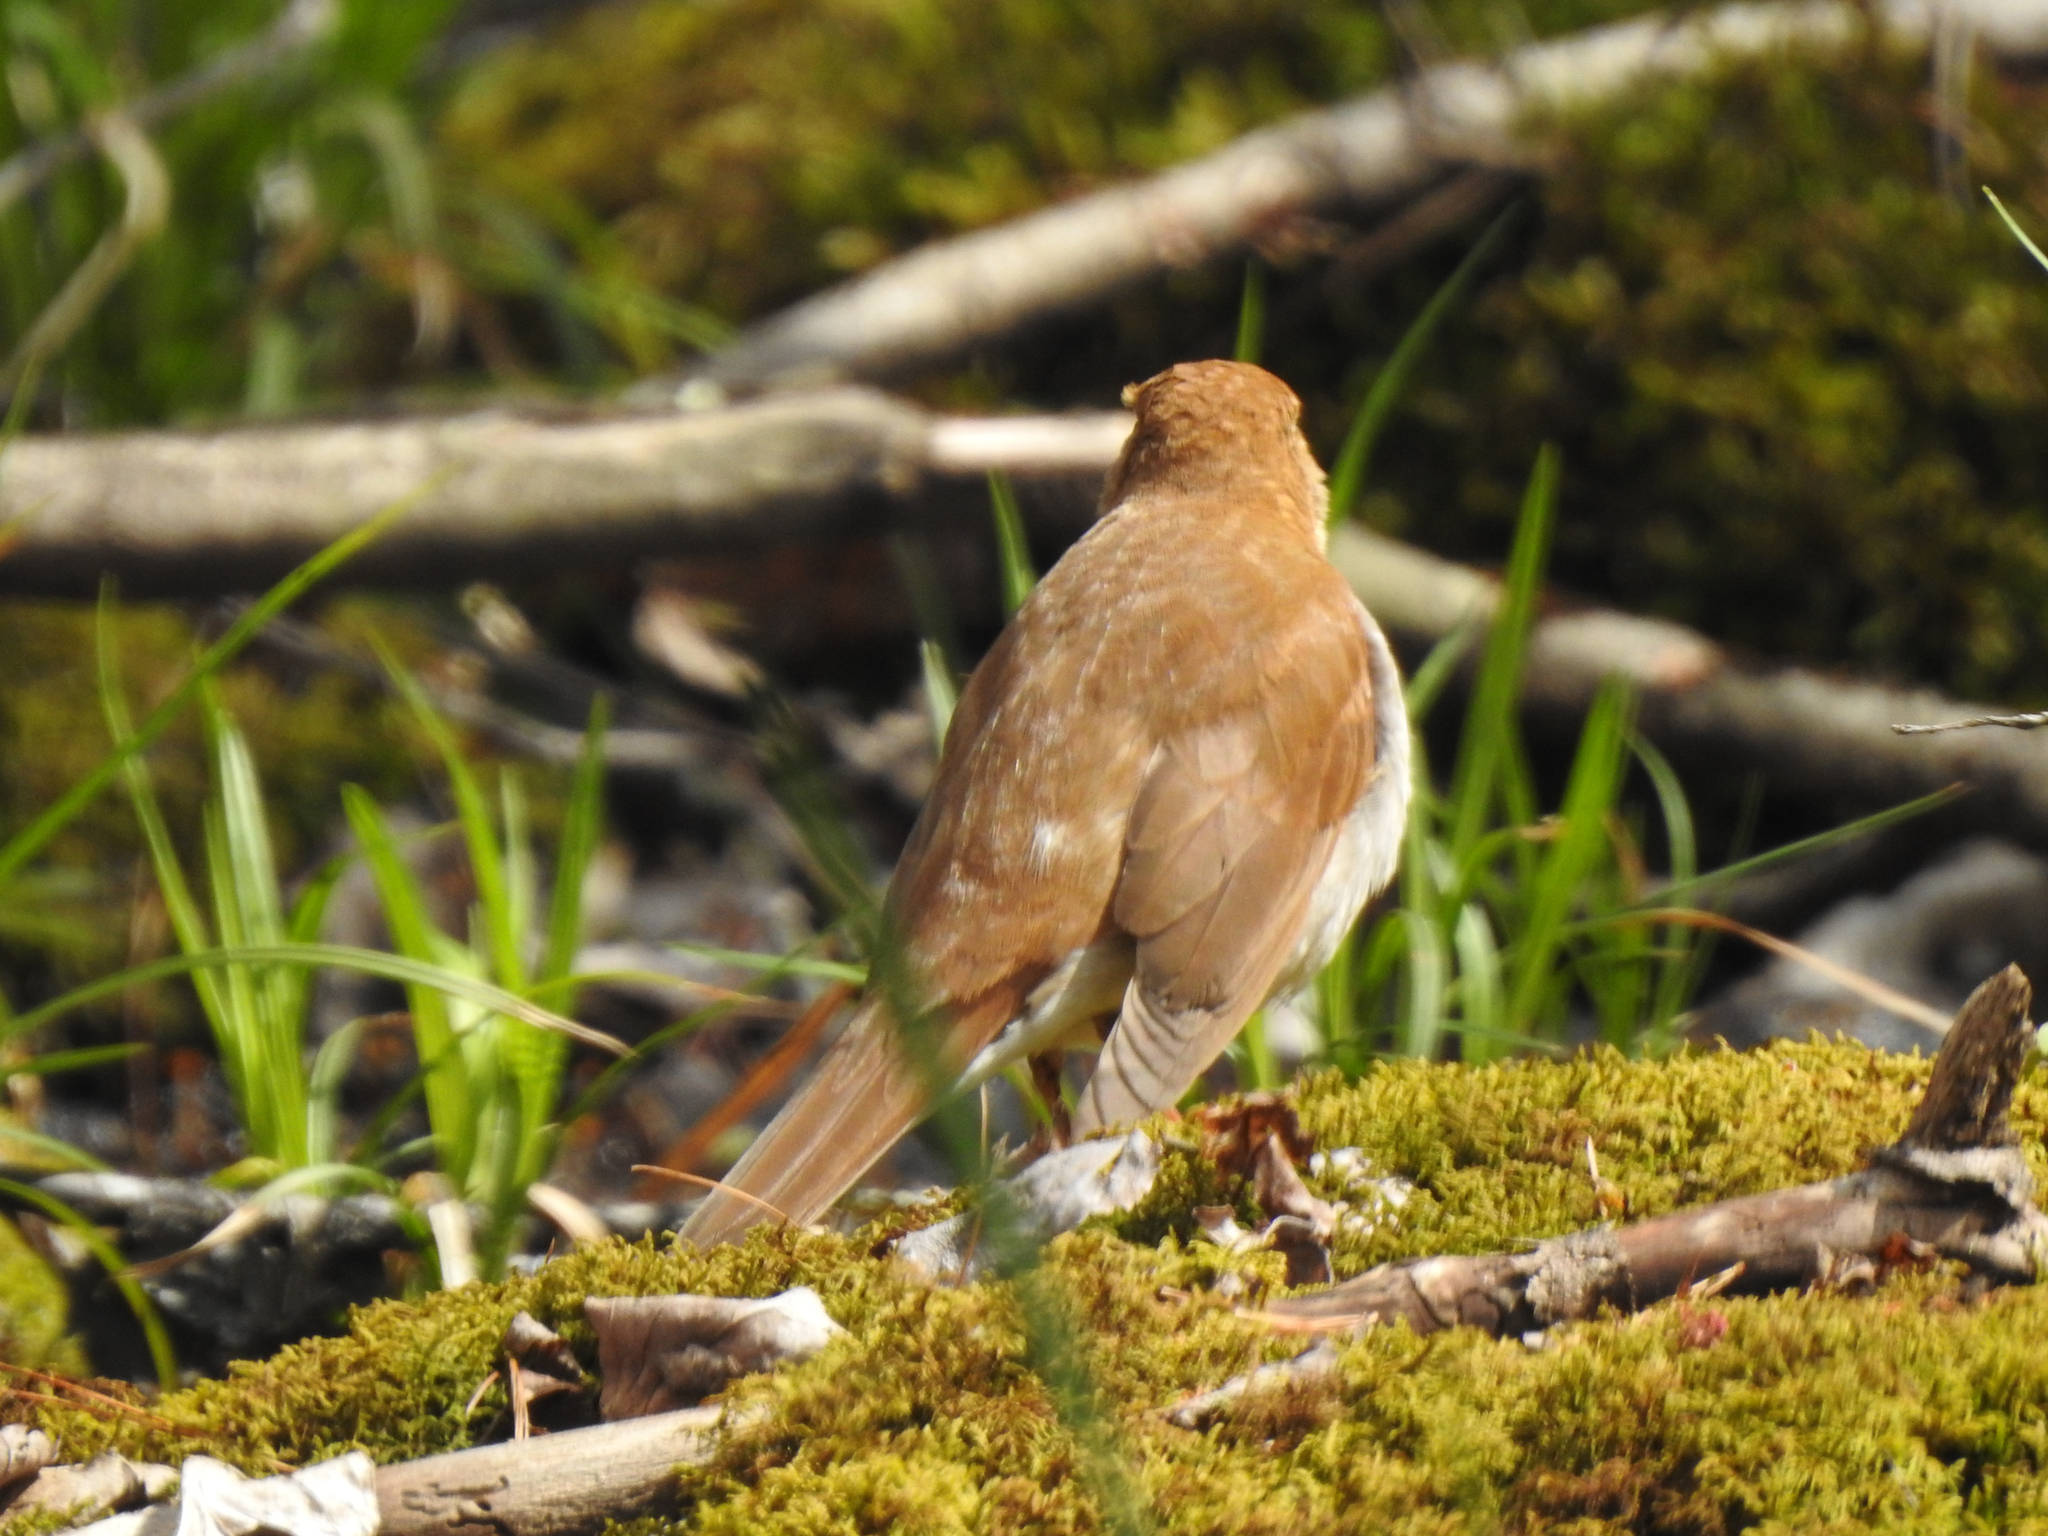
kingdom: Animalia
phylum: Chordata
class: Aves
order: Passeriformes
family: Turdidae
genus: Catharus
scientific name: Catharus fuscescens
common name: Veery
